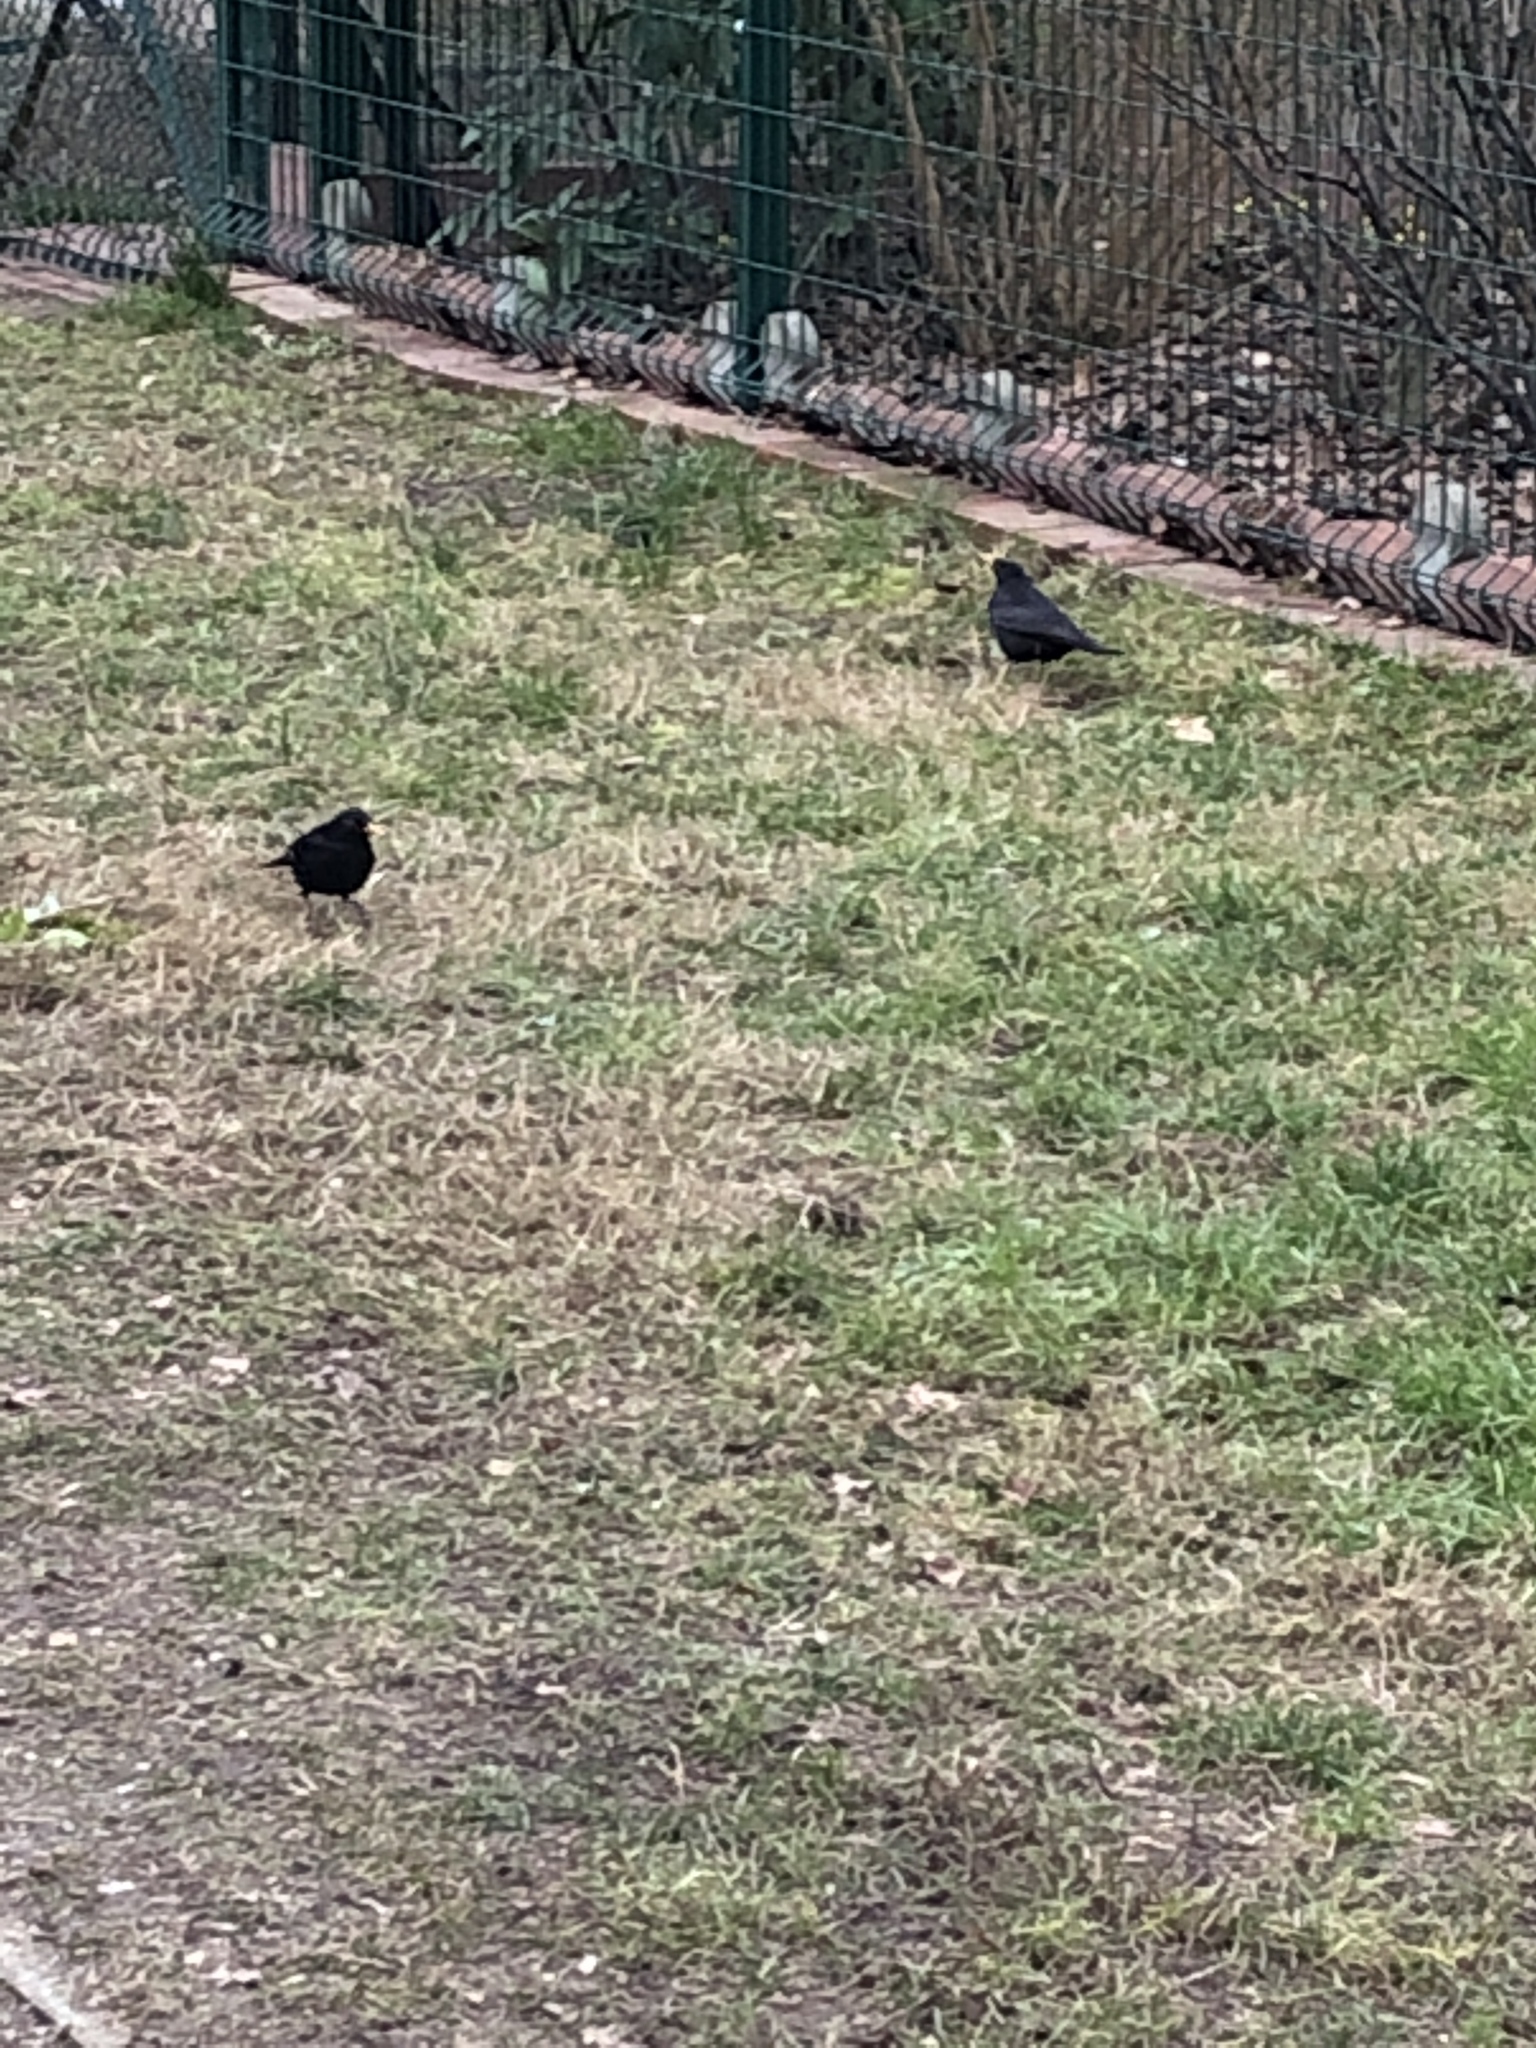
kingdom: Animalia
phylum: Chordata
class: Aves
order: Passeriformes
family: Turdidae
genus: Turdus
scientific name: Turdus merula
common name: Common blackbird
